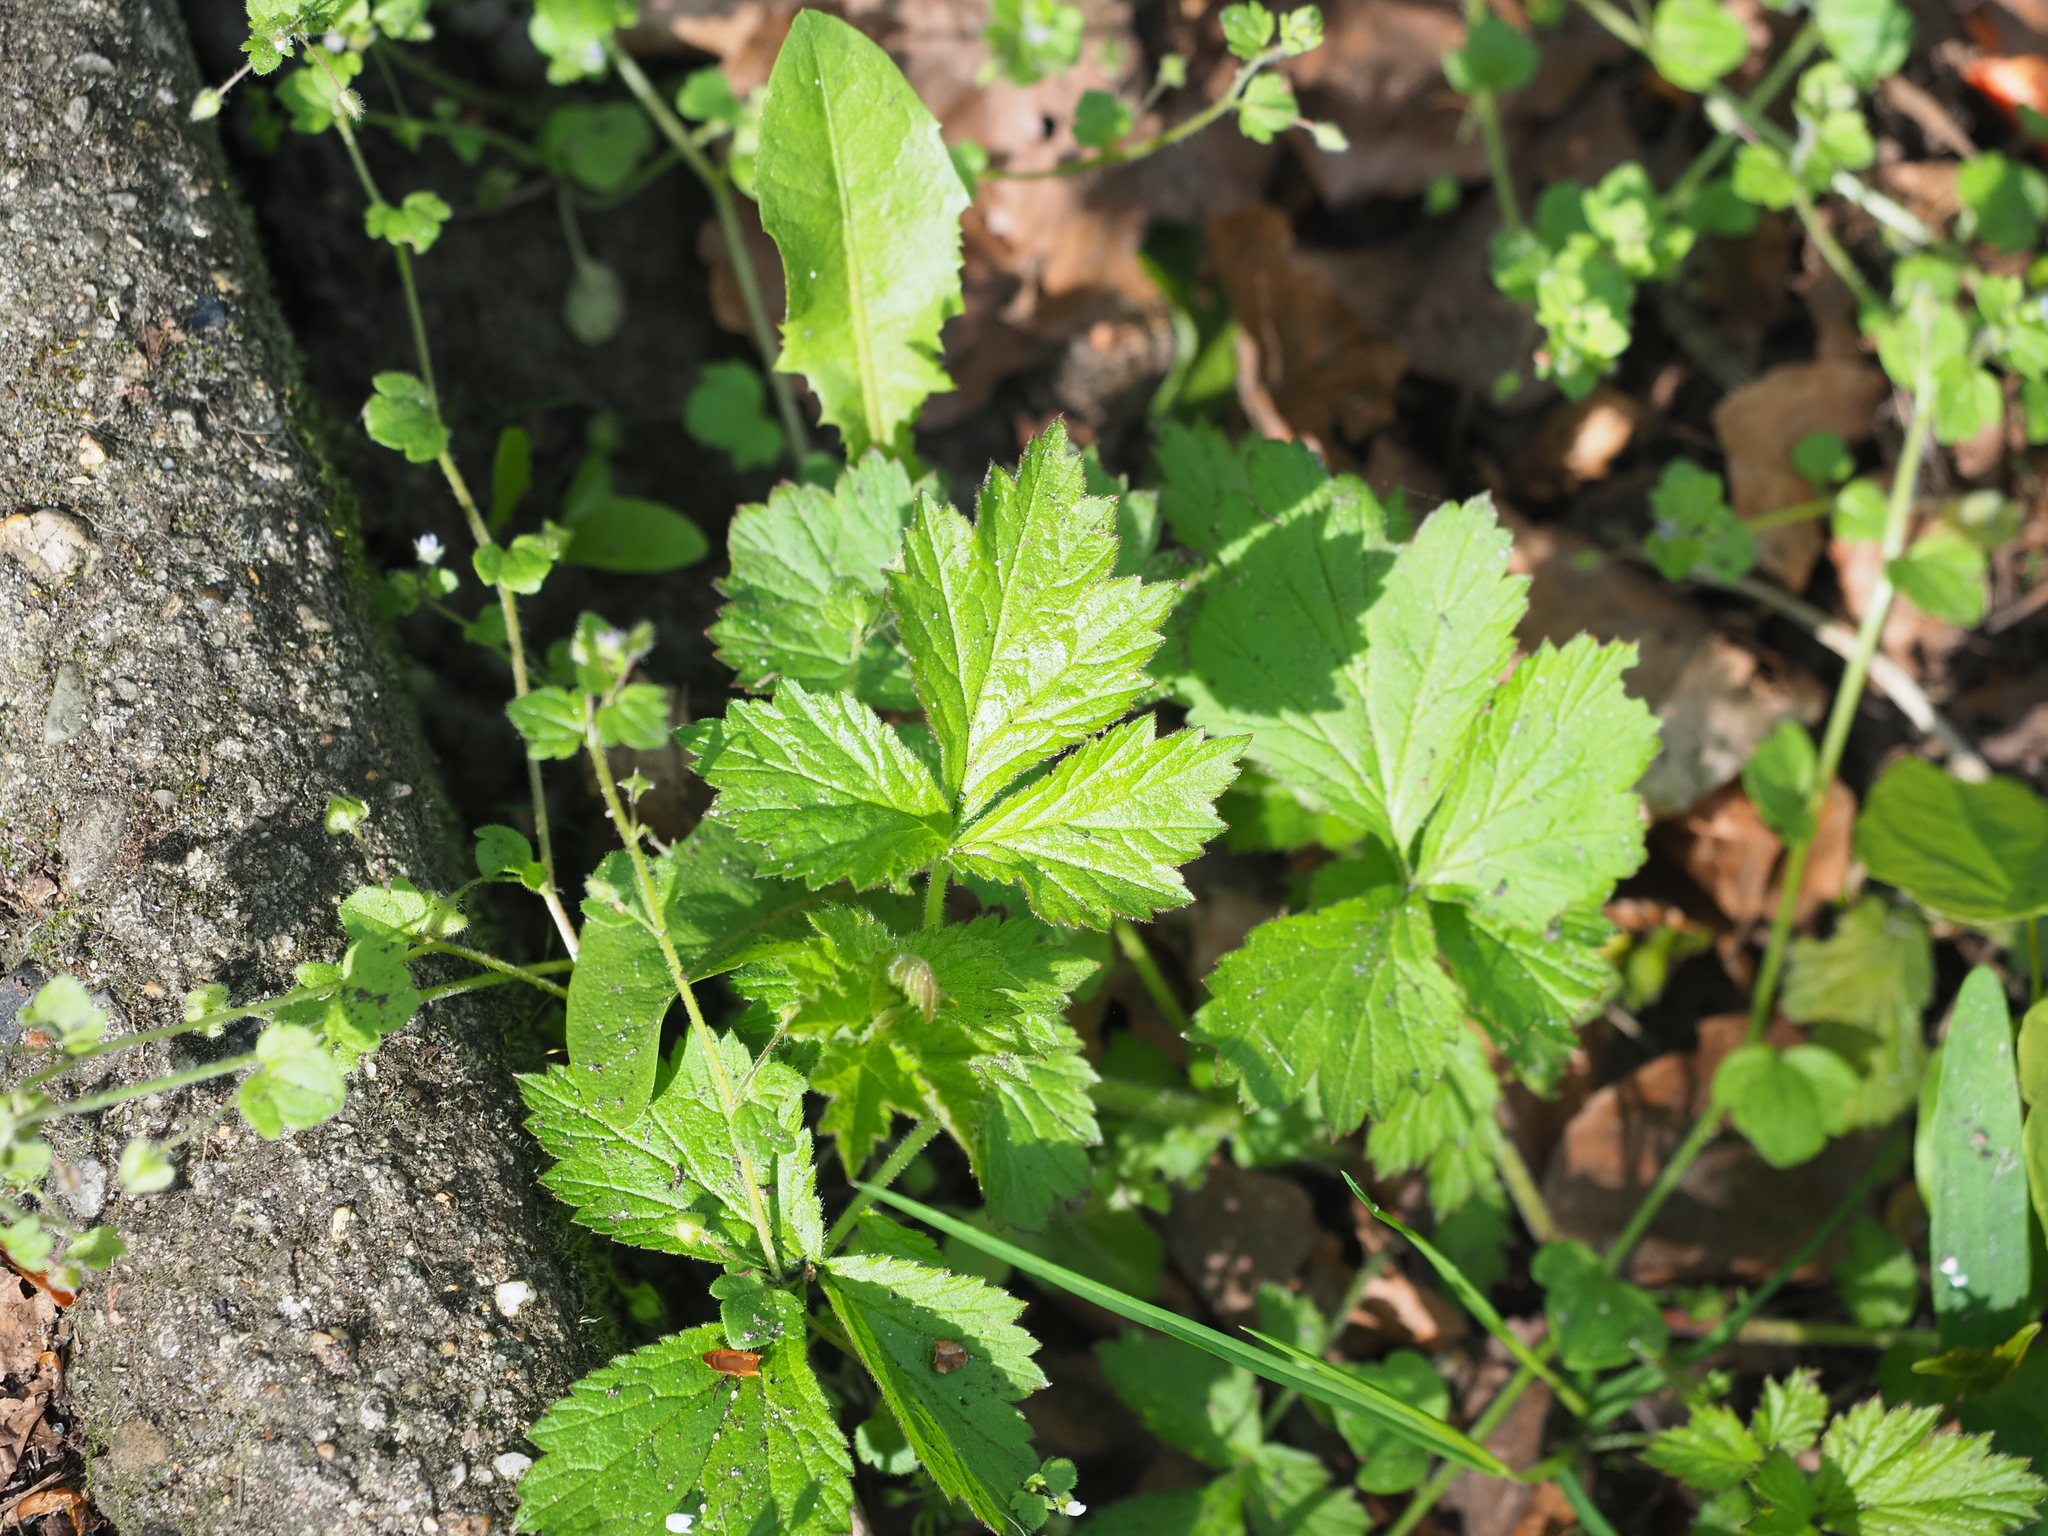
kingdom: Plantae
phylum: Tracheophyta
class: Magnoliopsida
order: Rosales
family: Rosaceae
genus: Geum
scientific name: Geum urbanum
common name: Wood avens
